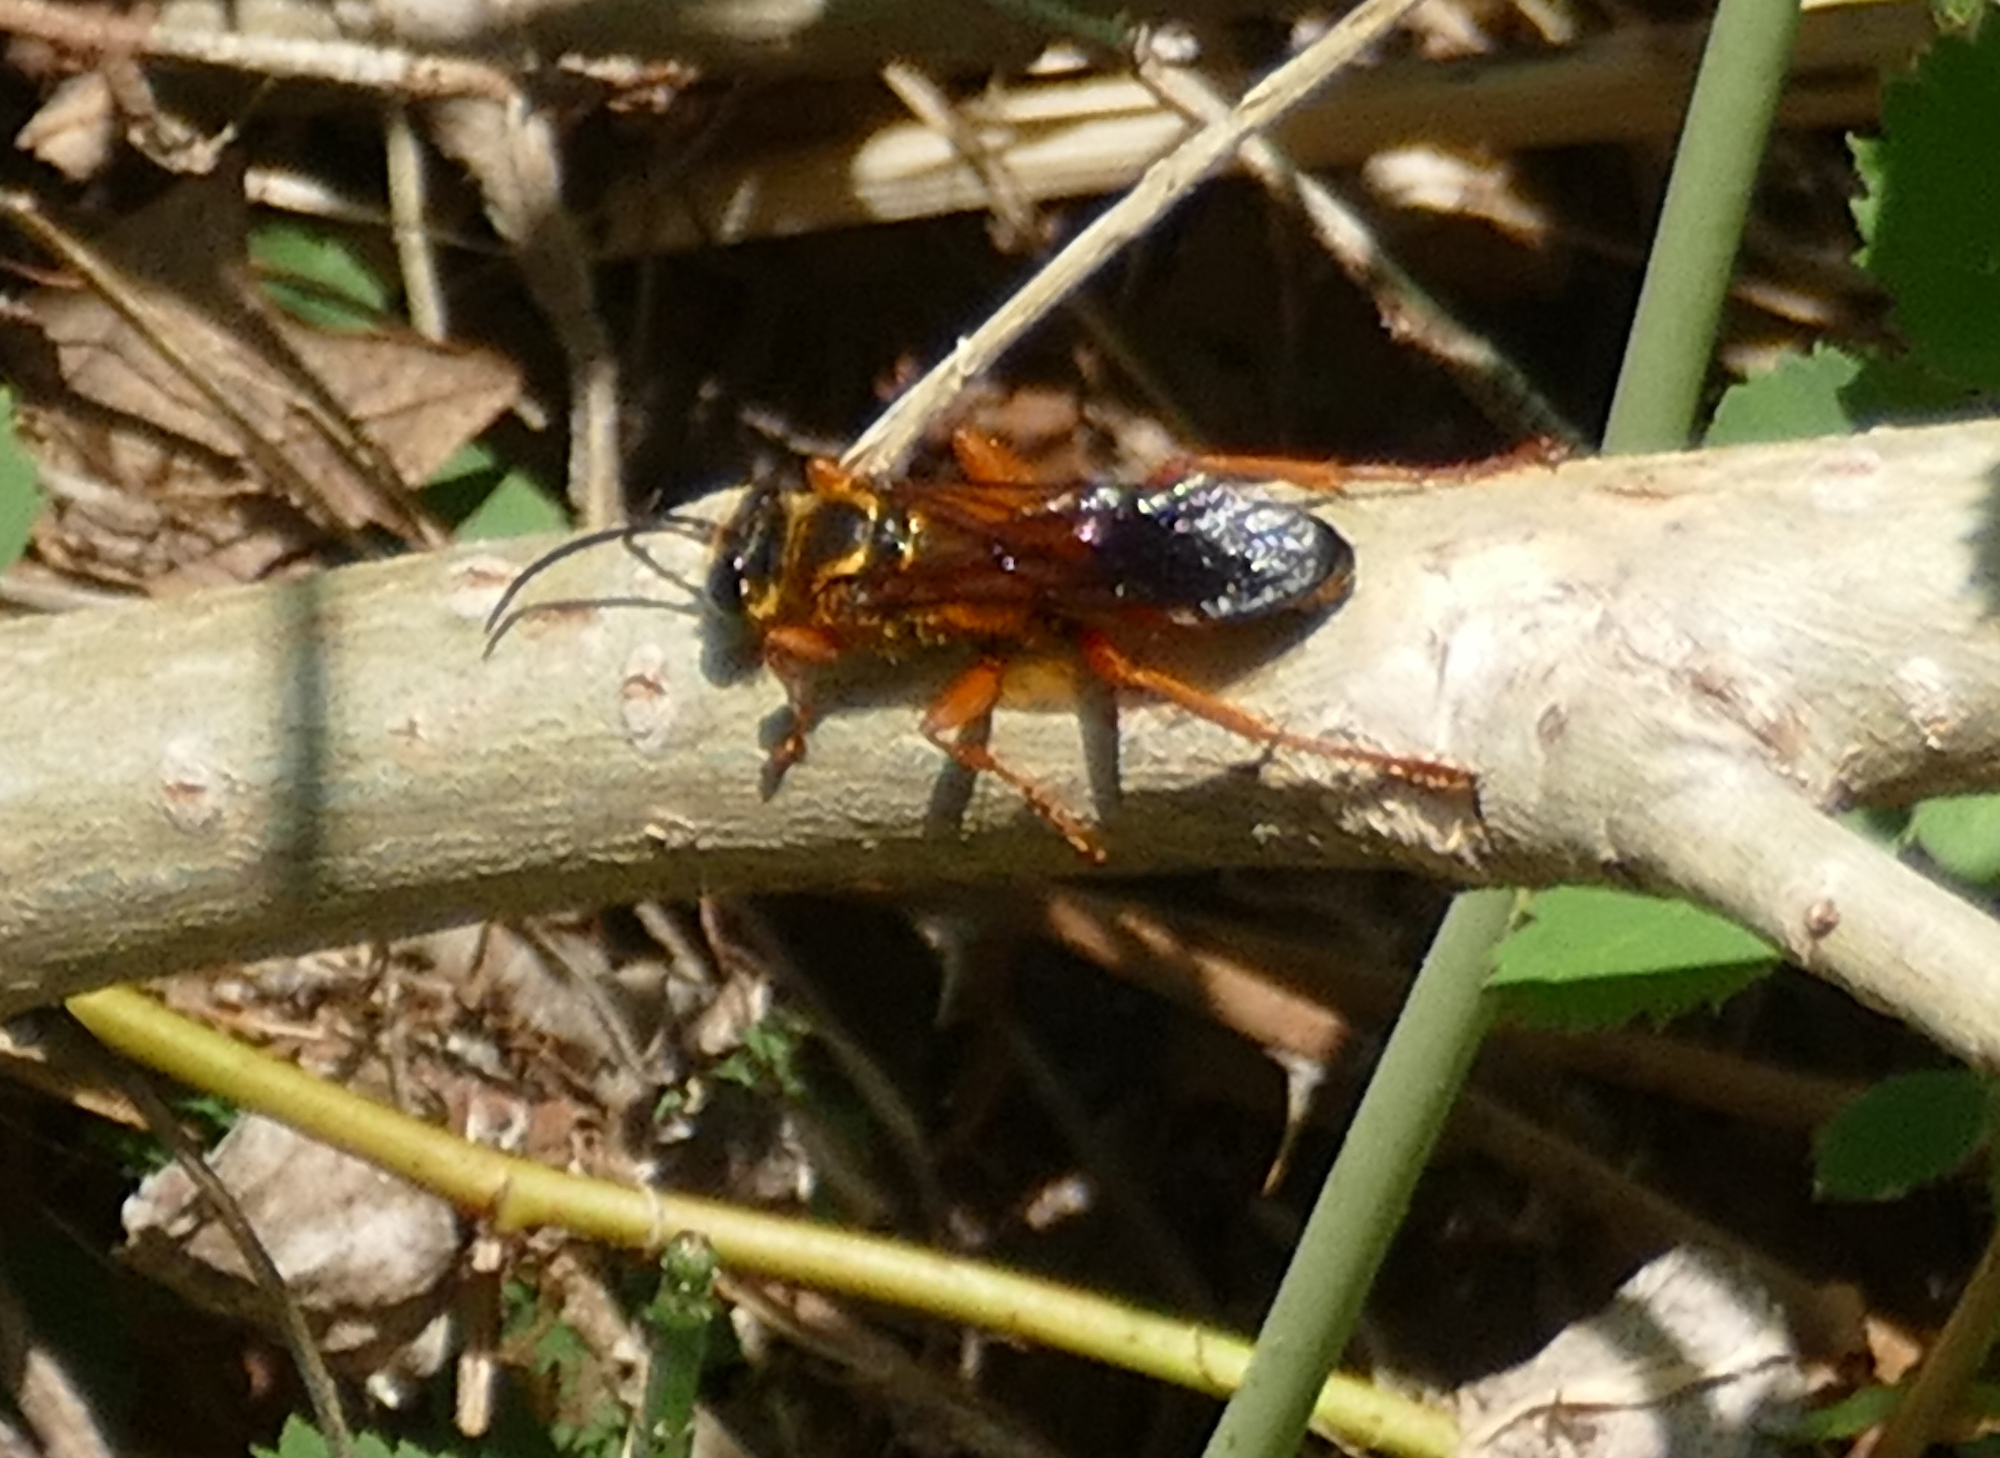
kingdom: Animalia
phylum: Arthropoda
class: Insecta
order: Hymenoptera
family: Sphecidae
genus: Sphex
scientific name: Sphex ichneumoneus
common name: Great golden digger wasp
